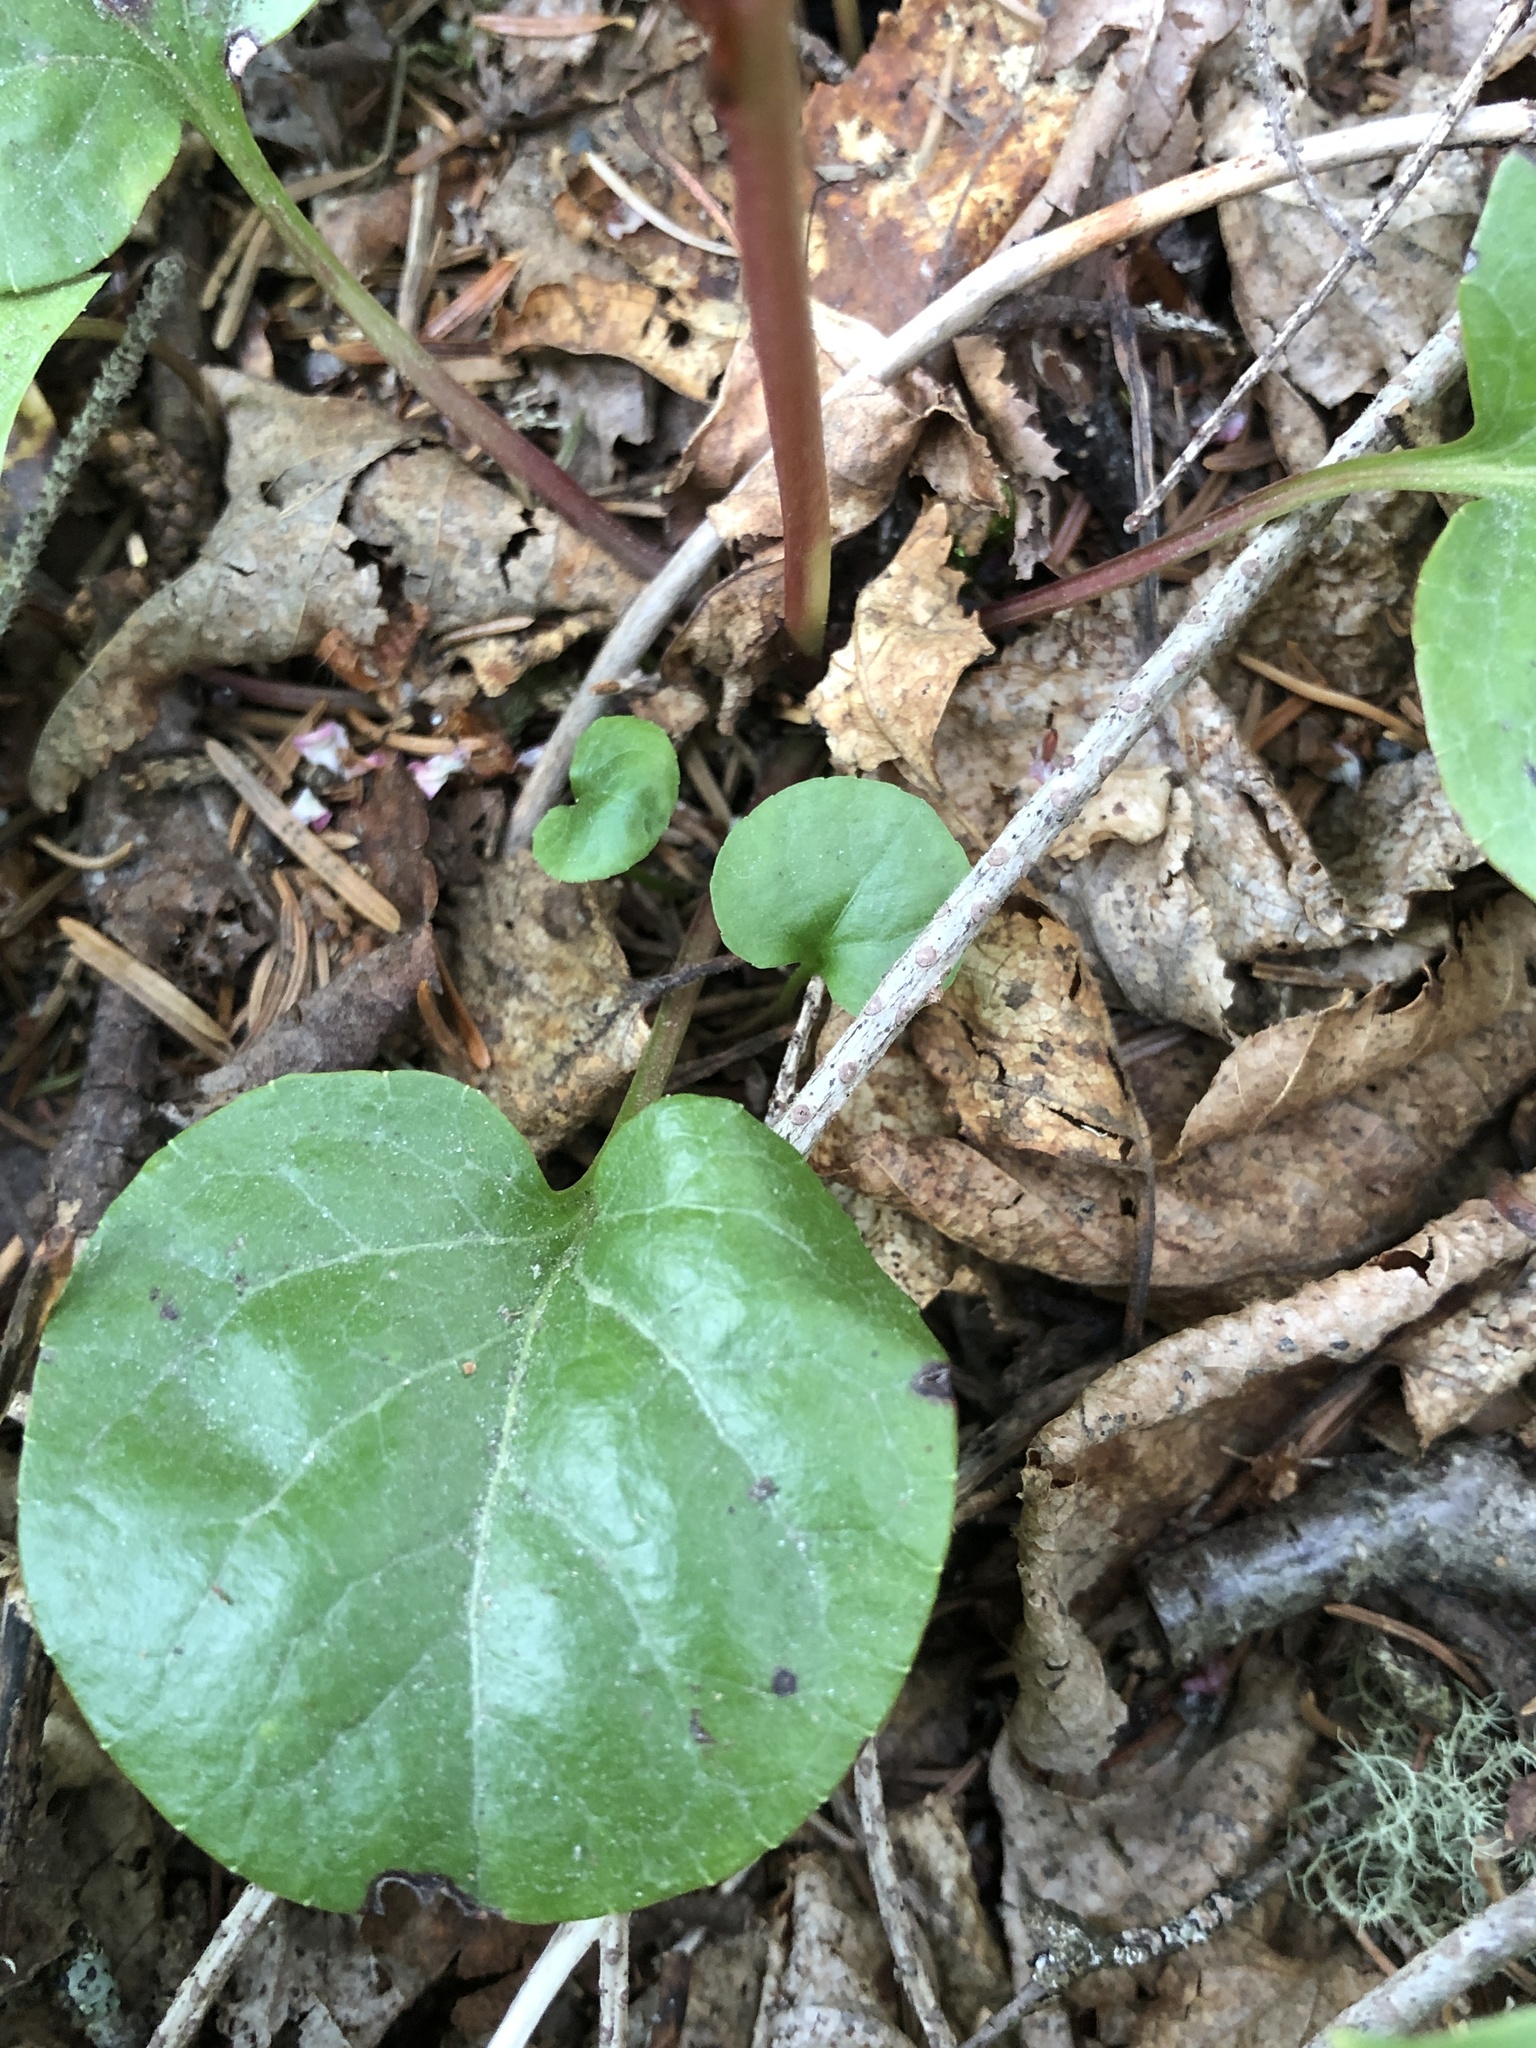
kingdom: Plantae
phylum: Tracheophyta
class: Magnoliopsida
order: Ericales
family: Ericaceae
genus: Pyrola
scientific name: Pyrola asarifolia
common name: Bog wintergreen
